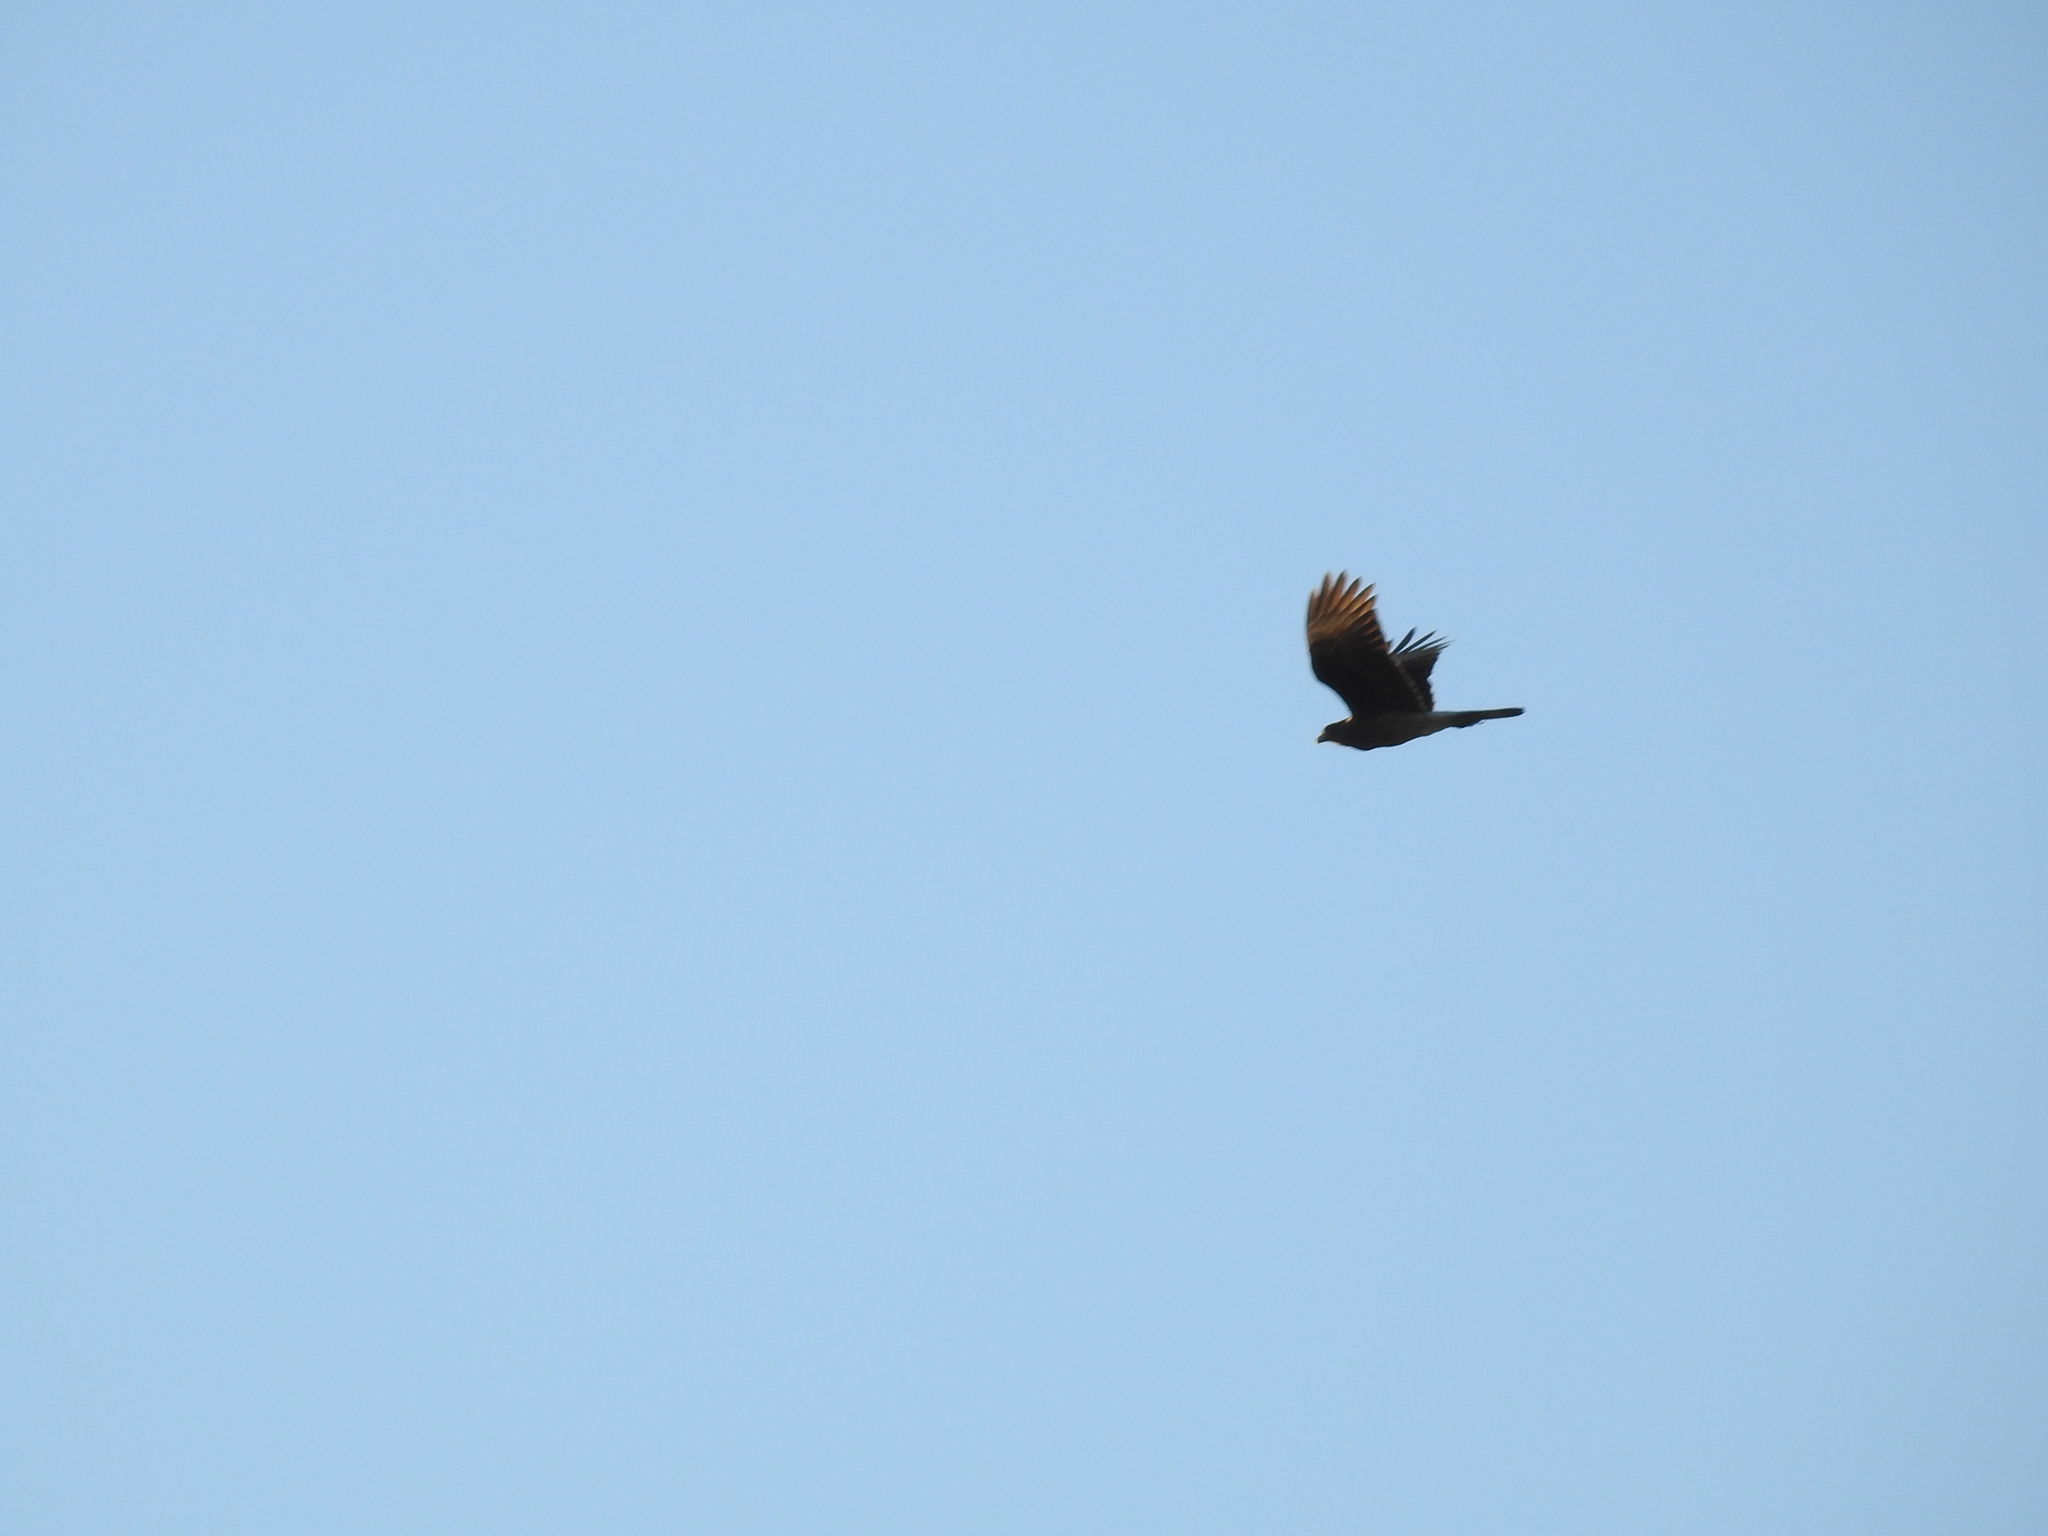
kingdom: Animalia
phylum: Chordata
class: Aves
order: Falconiformes
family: Falconidae
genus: Daptrius
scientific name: Daptrius
